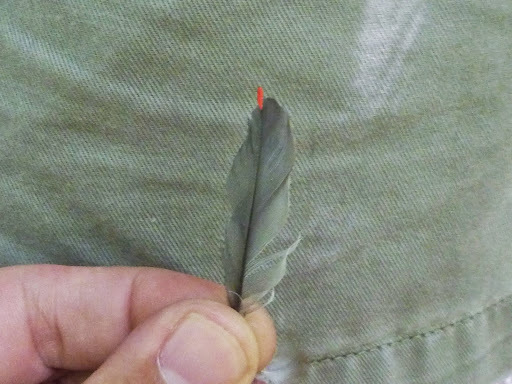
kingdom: Animalia
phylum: Chordata
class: Aves
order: Passeriformes
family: Bombycillidae
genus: Bombycilla
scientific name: Bombycilla cedrorum
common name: Cedar waxwing
